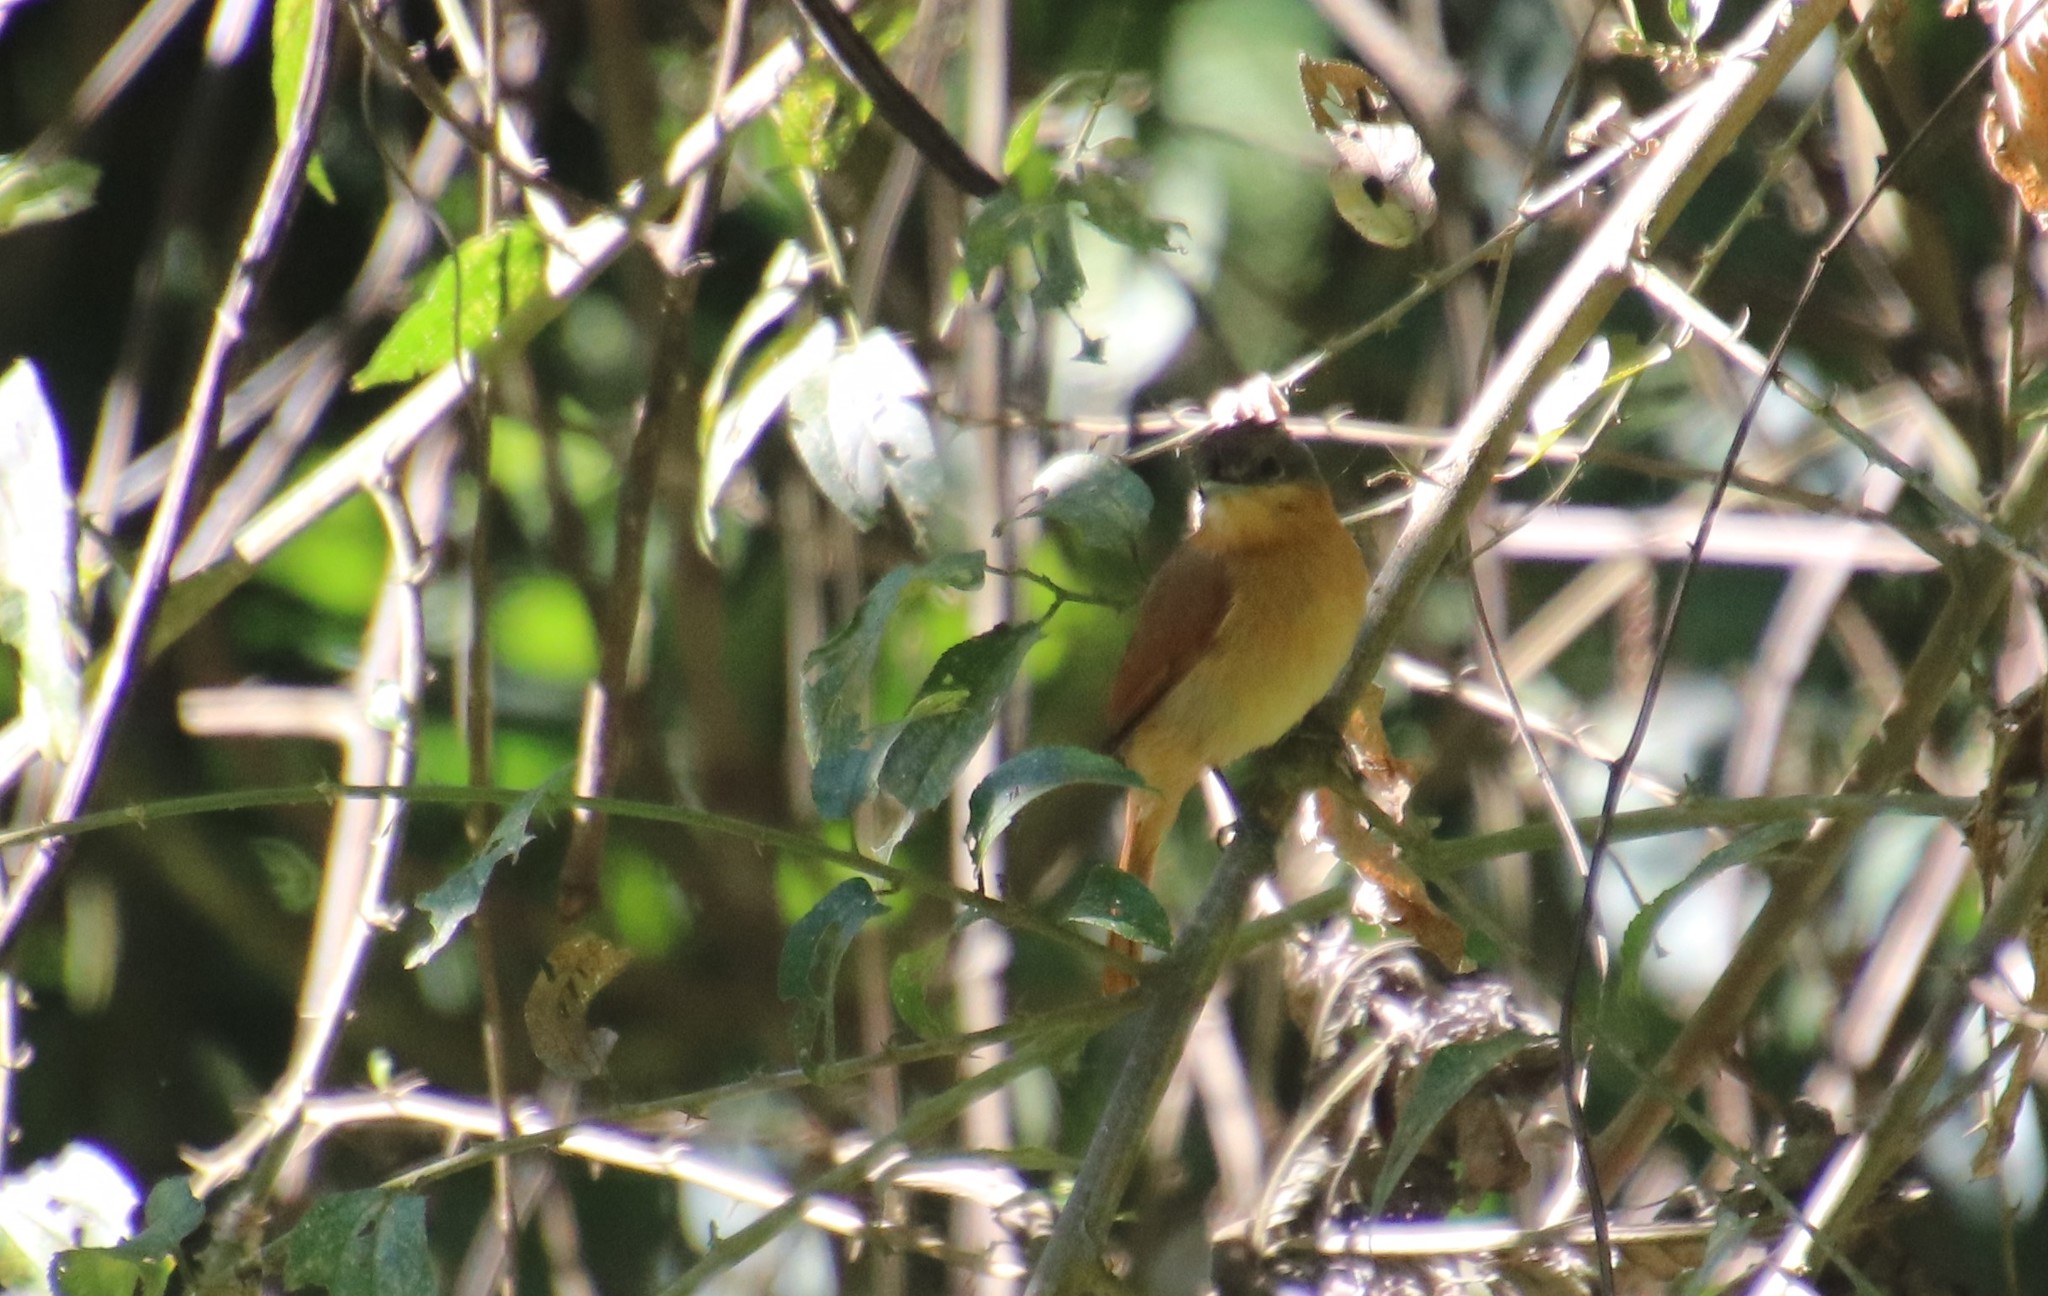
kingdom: Animalia
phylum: Chordata
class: Aves
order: Passeriformes
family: Cotingidae
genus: Pachyramphus
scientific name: Pachyramphus castaneus
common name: Chestnut-crowned becard
